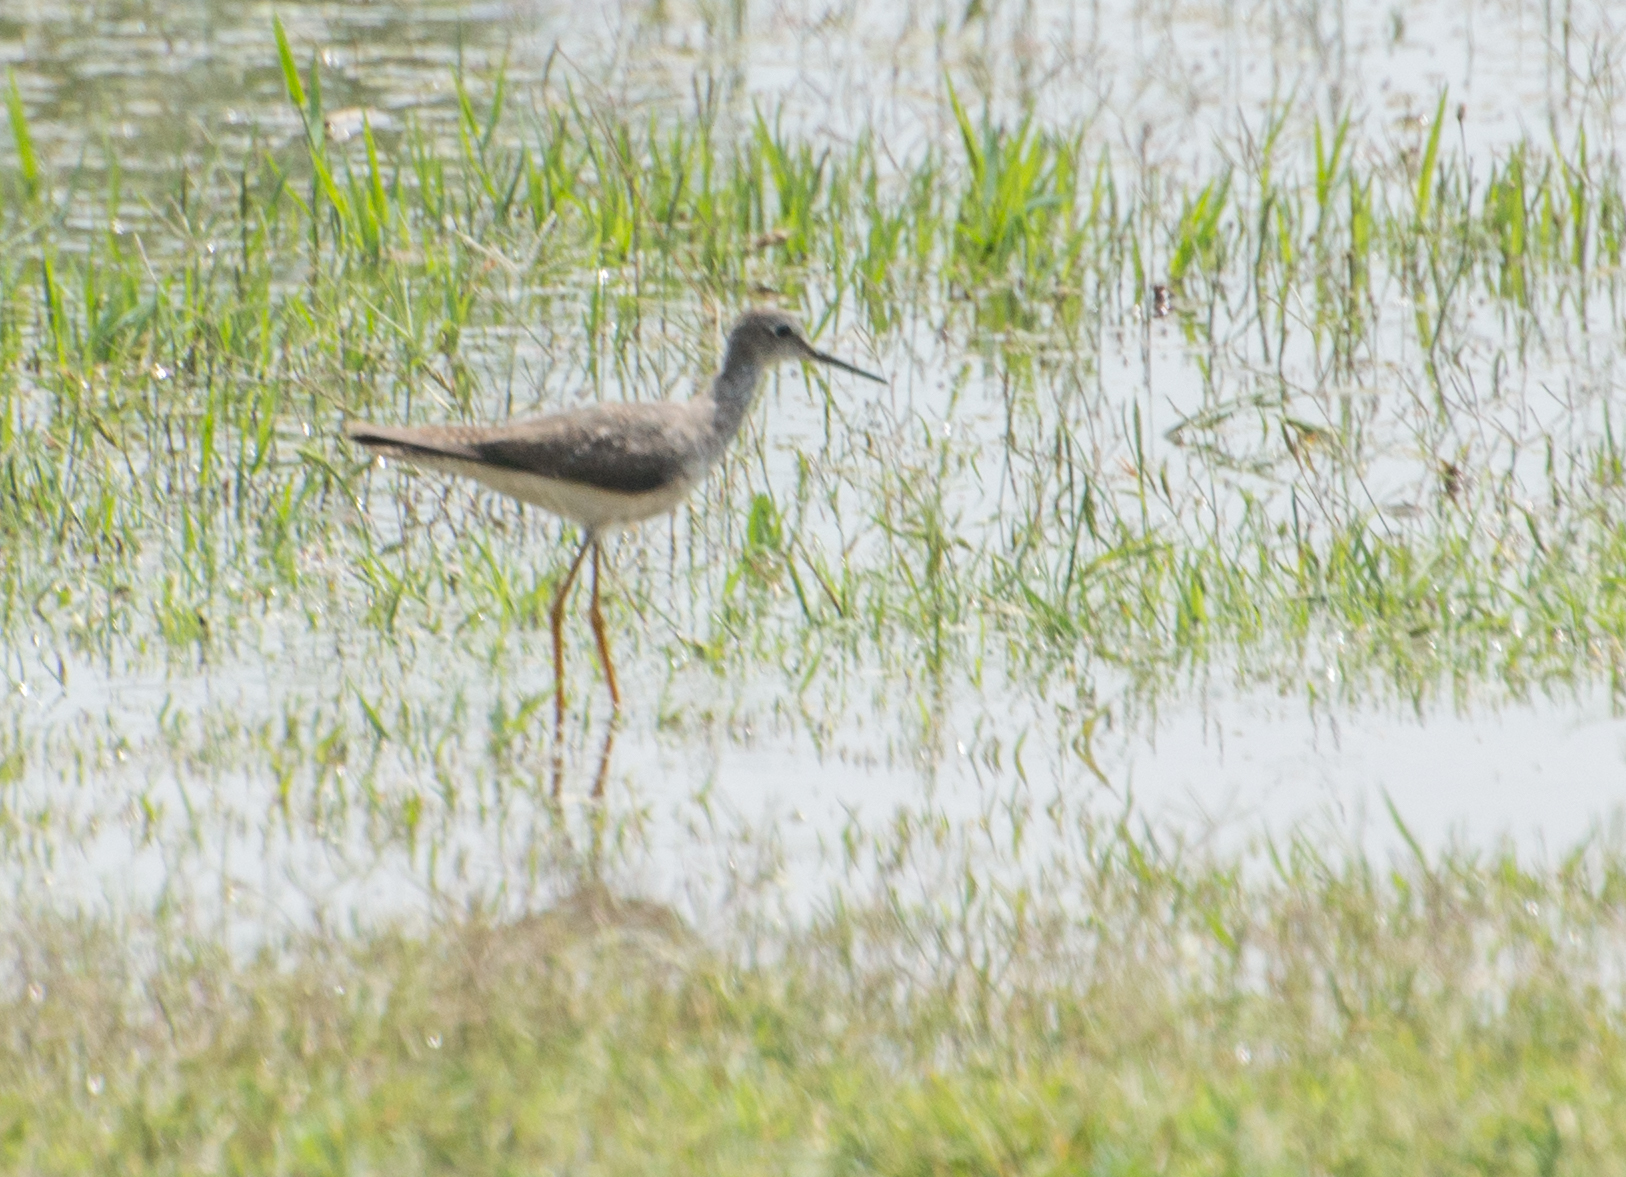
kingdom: Animalia
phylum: Chordata
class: Aves
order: Charadriiformes
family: Scolopacidae
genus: Tringa
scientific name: Tringa flavipes
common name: Lesser yellowlegs
